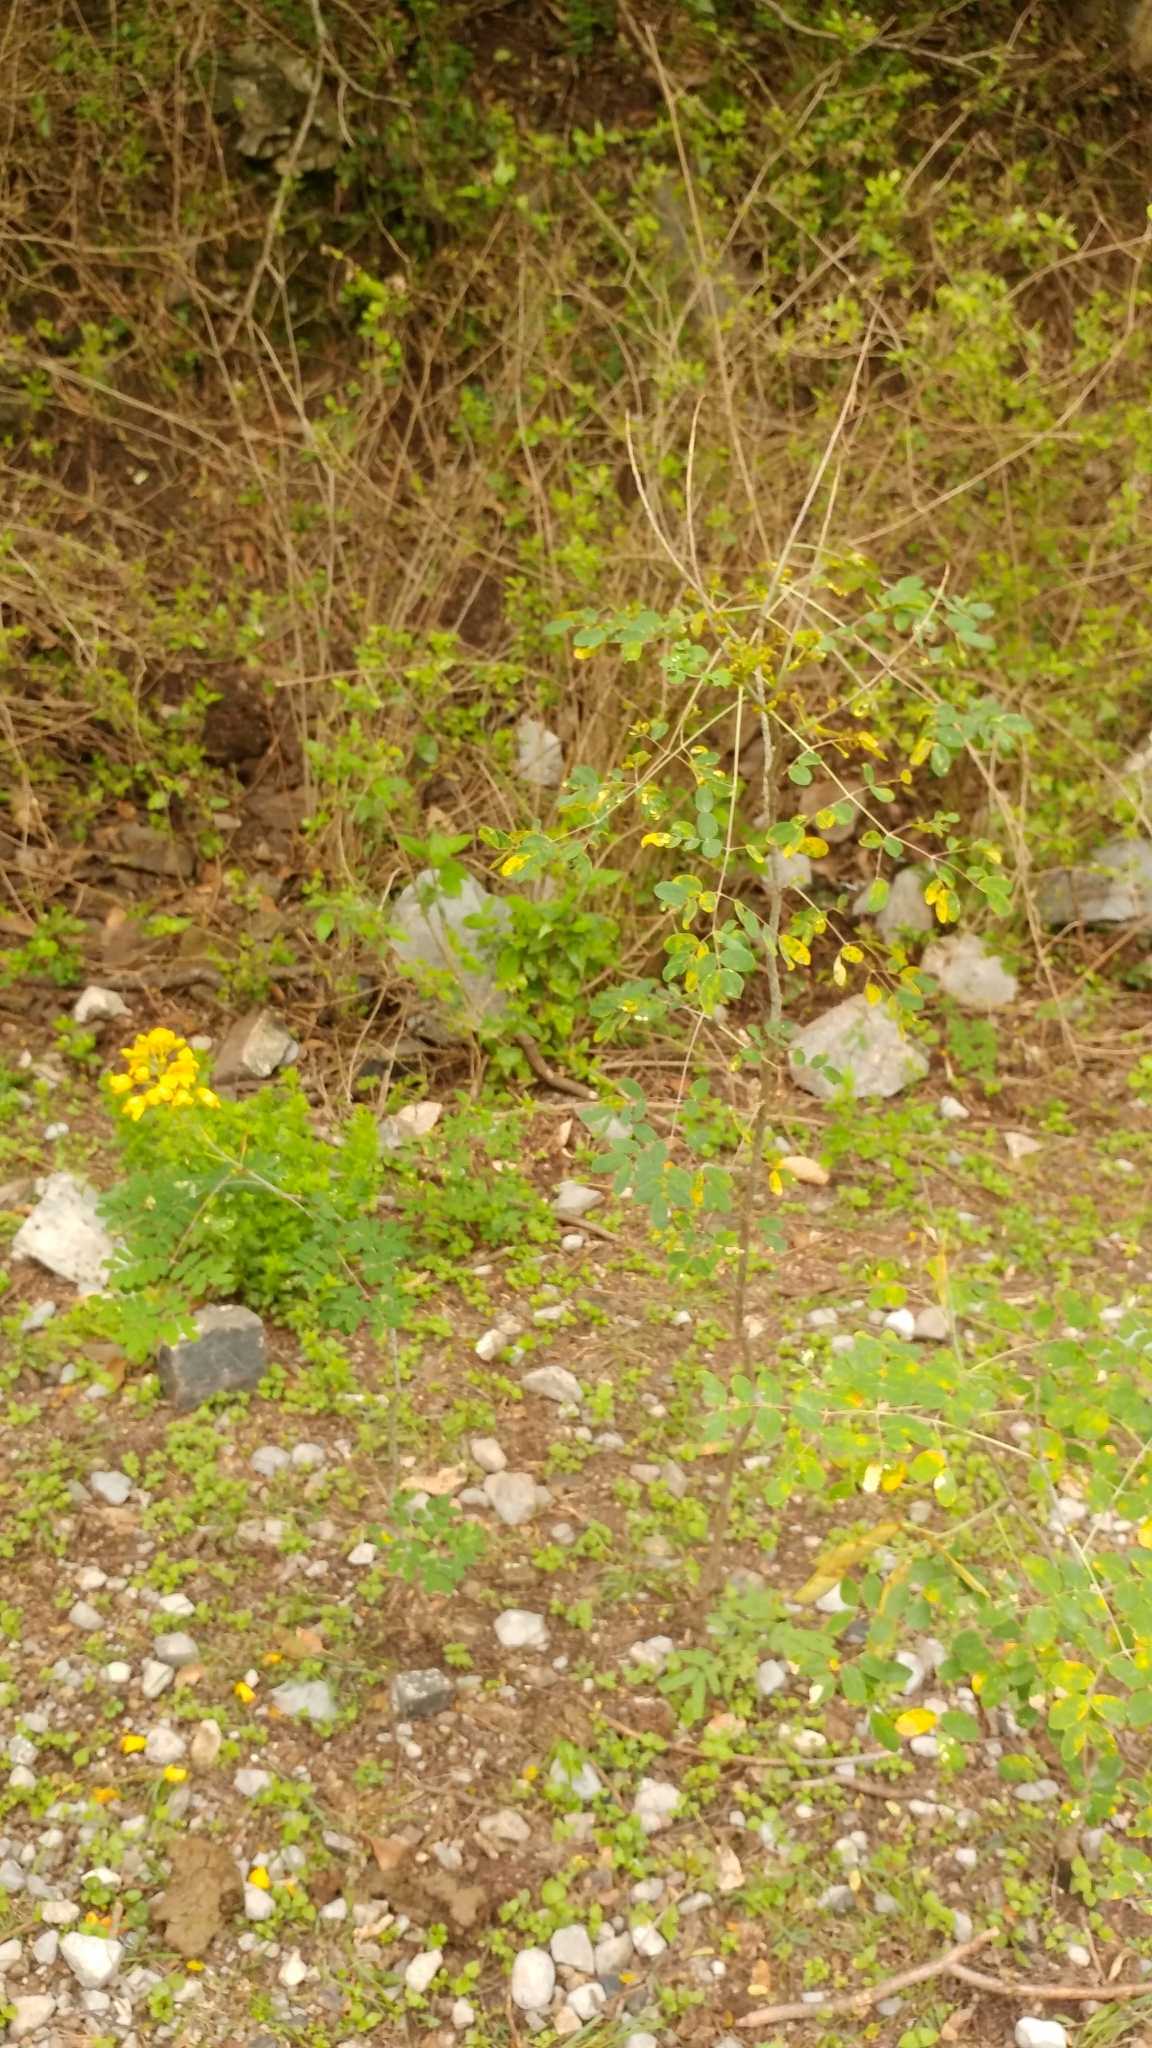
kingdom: Plantae
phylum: Tracheophyta
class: Magnoliopsida
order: Fabales
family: Fabaceae
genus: Erythrostemon
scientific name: Erythrostemon mexicanus
